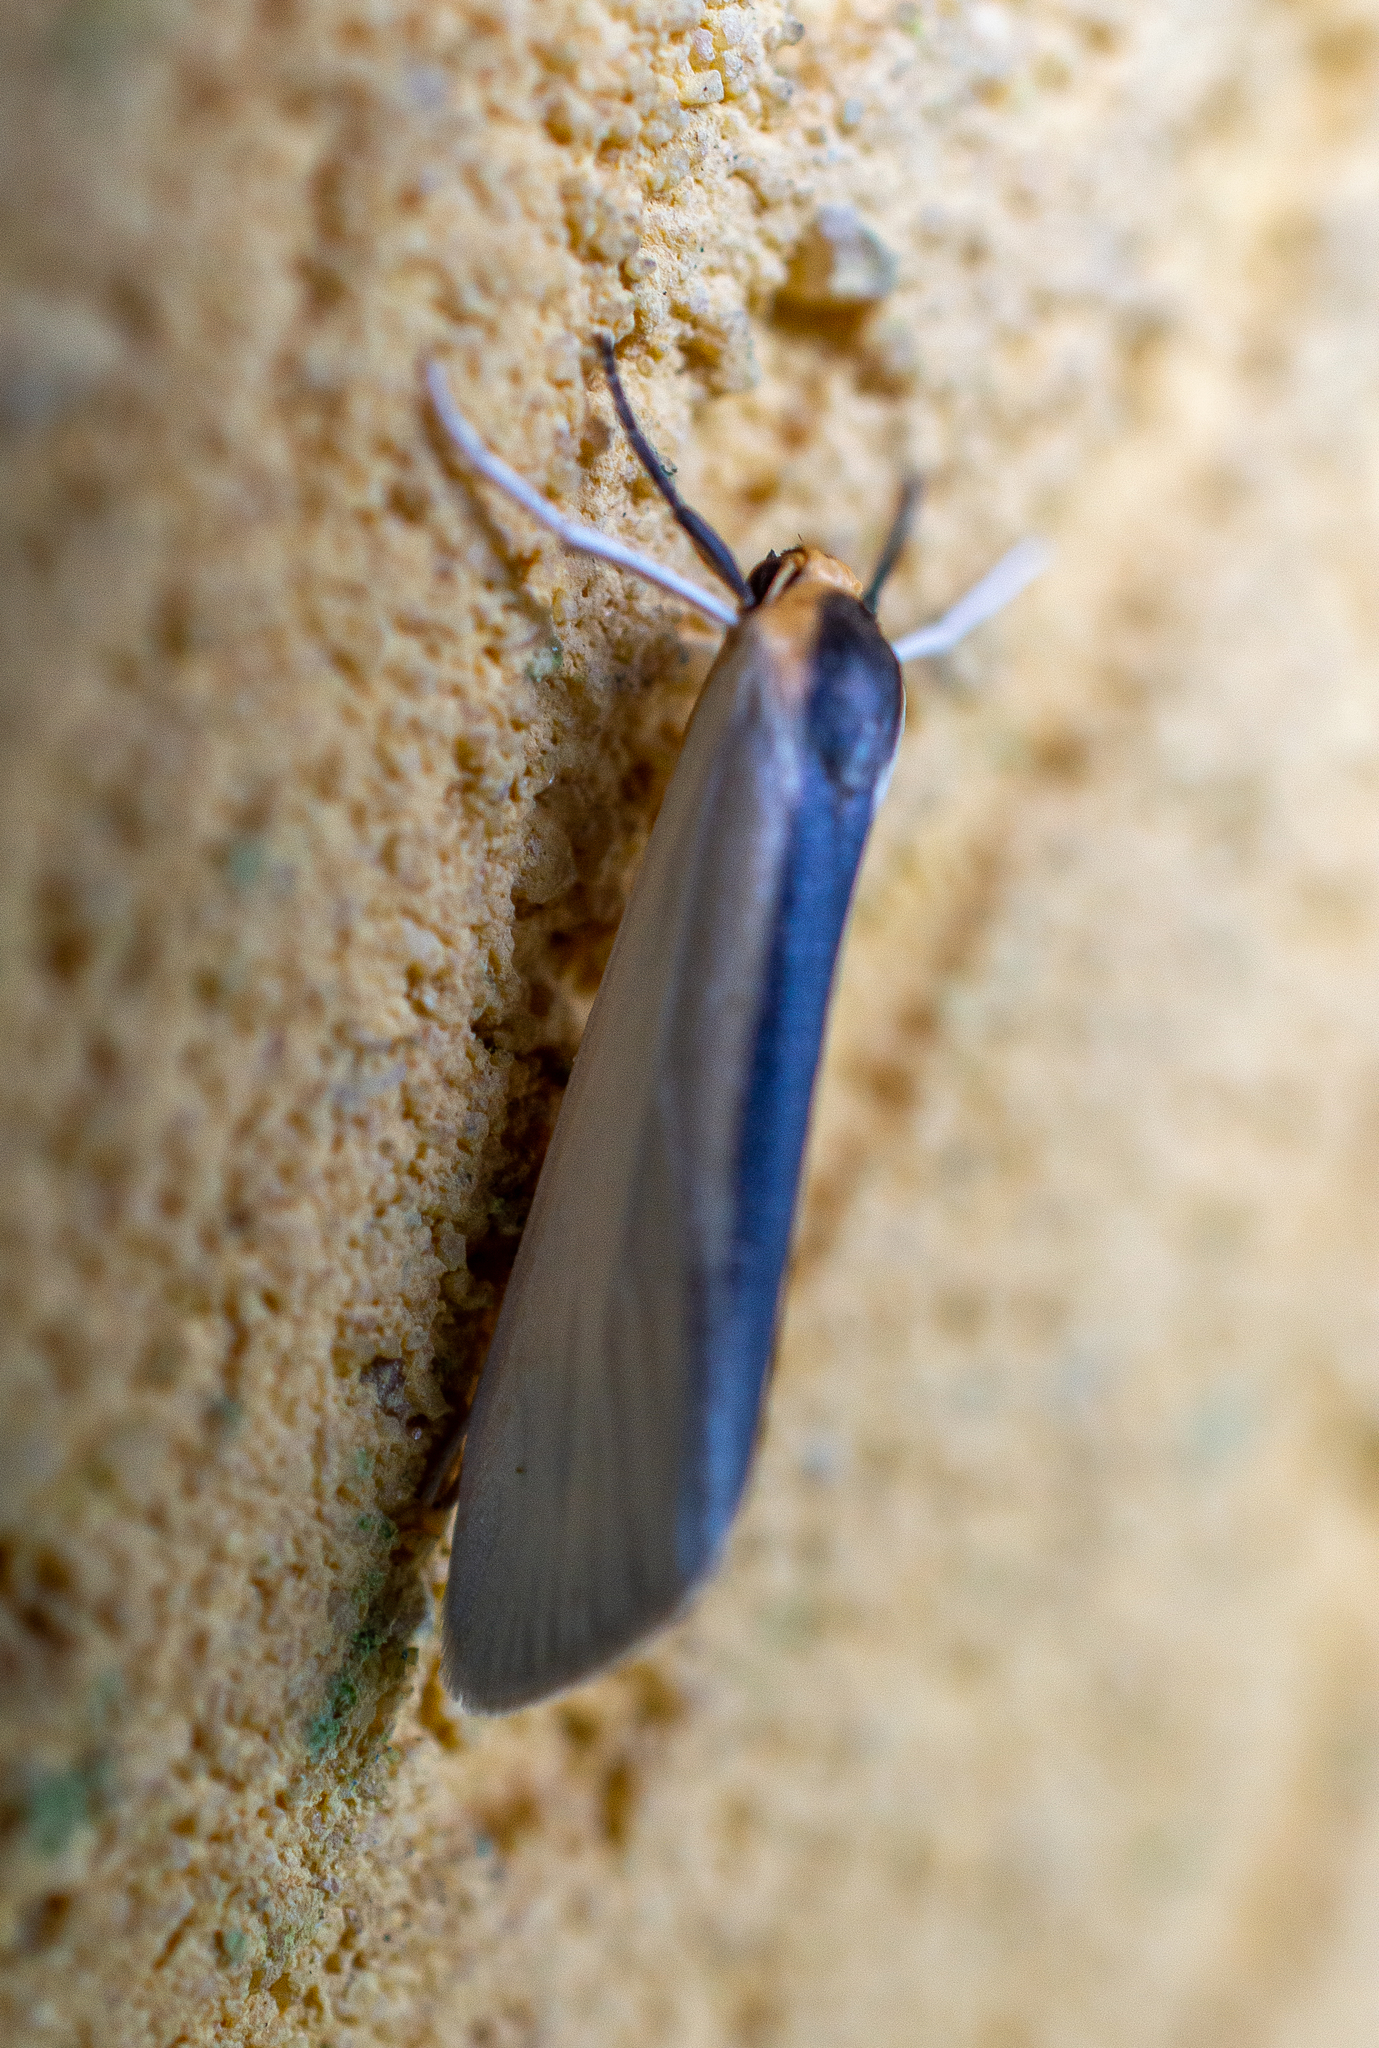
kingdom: Animalia
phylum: Arthropoda
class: Insecta
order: Lepidoptera
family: Erebidae
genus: Agylla
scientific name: Agylla separata
